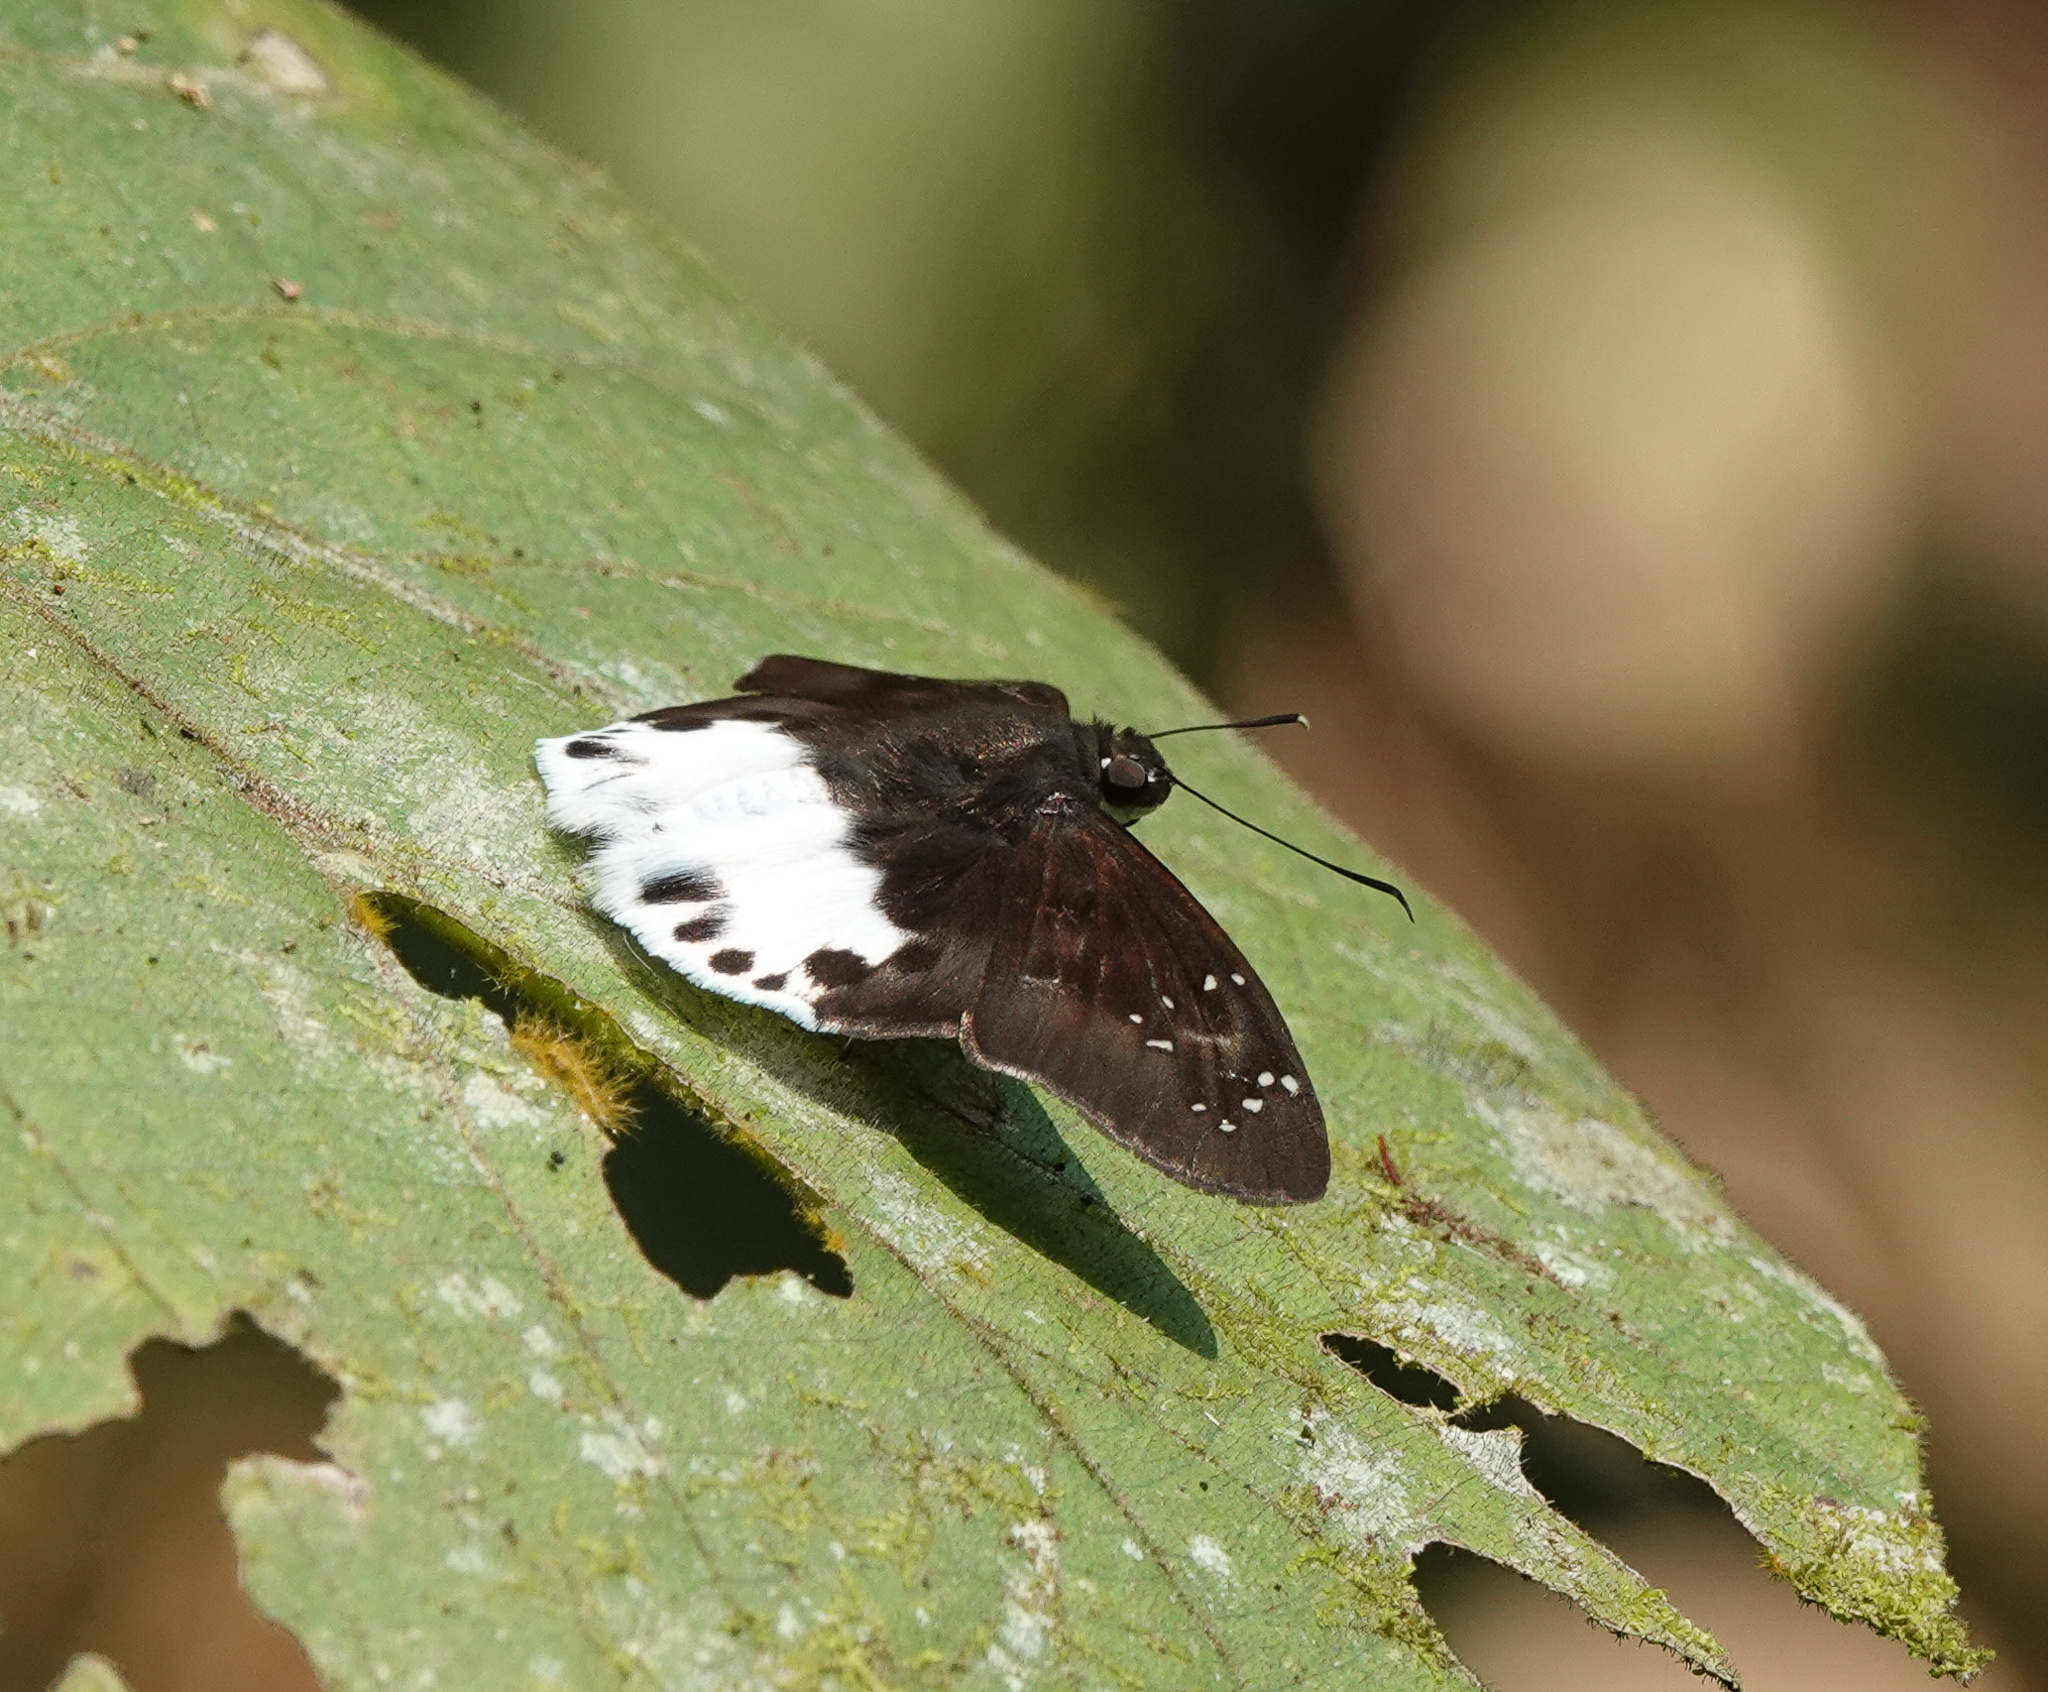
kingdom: Animalia
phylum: Arthropoda
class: Insecta
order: Lepidoptera
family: Hesperiidae
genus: Tagiades
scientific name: Tagiades litigiosa
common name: Water snow flat
